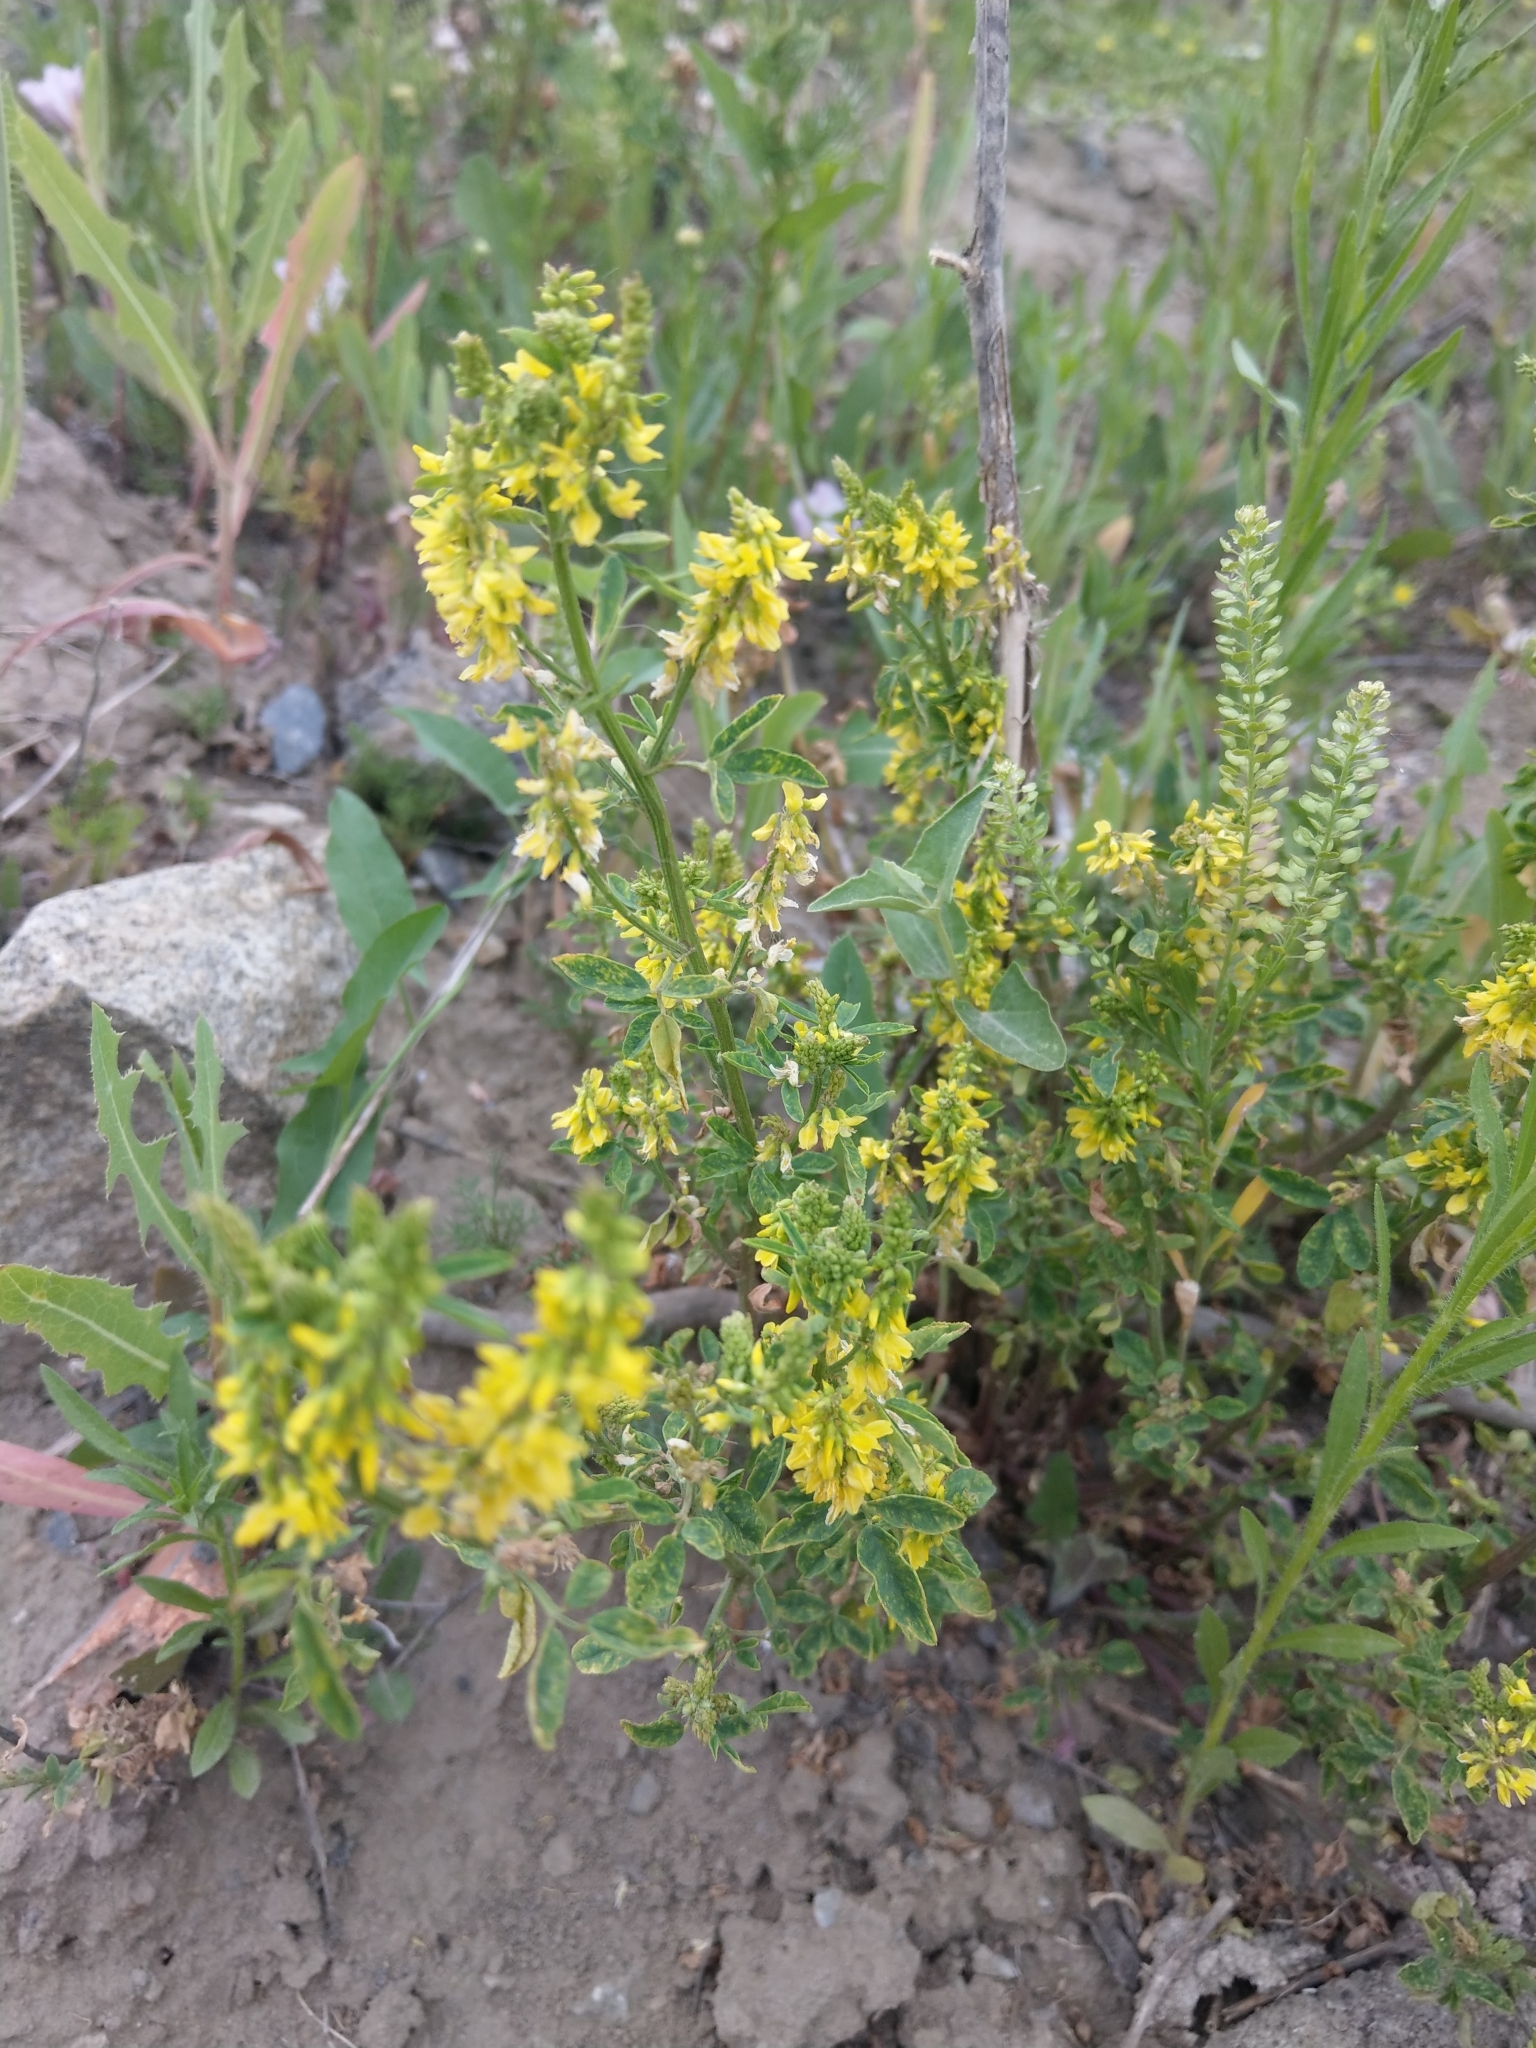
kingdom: Plantae
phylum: Tracheophyta
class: Magnoliopsida
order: Fabales
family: Fabaceae
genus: Melilotus
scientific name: Melilotus officinalis
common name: Sweetclover
